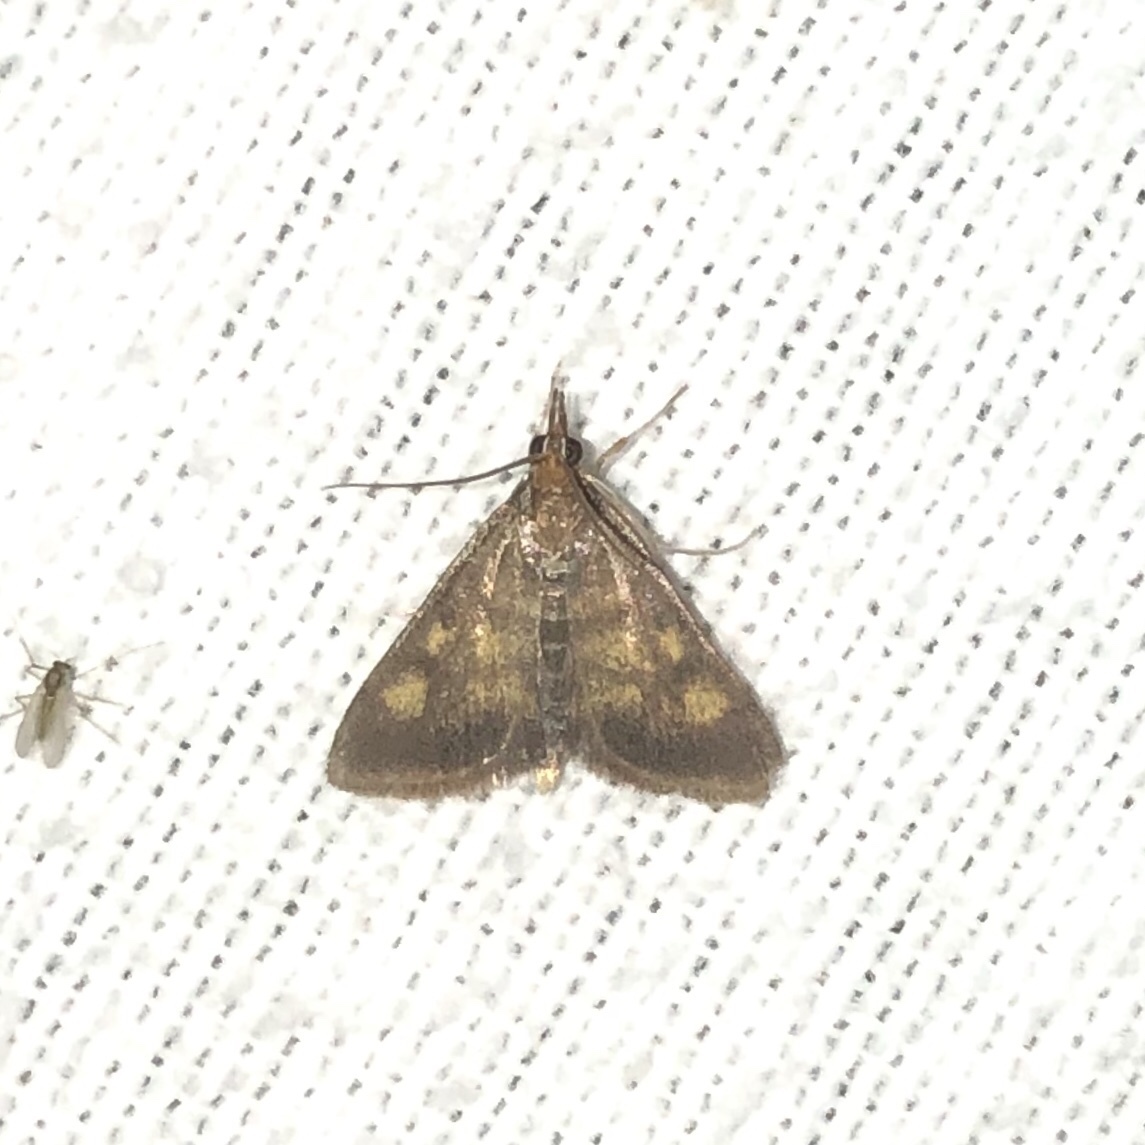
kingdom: Animalia
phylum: Arthropoda
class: Insecta
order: Lepidoptera
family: Crambidae
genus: Pyrausta
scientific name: Pyrausta acrionalis
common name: Mint-loving pyrausta moth
